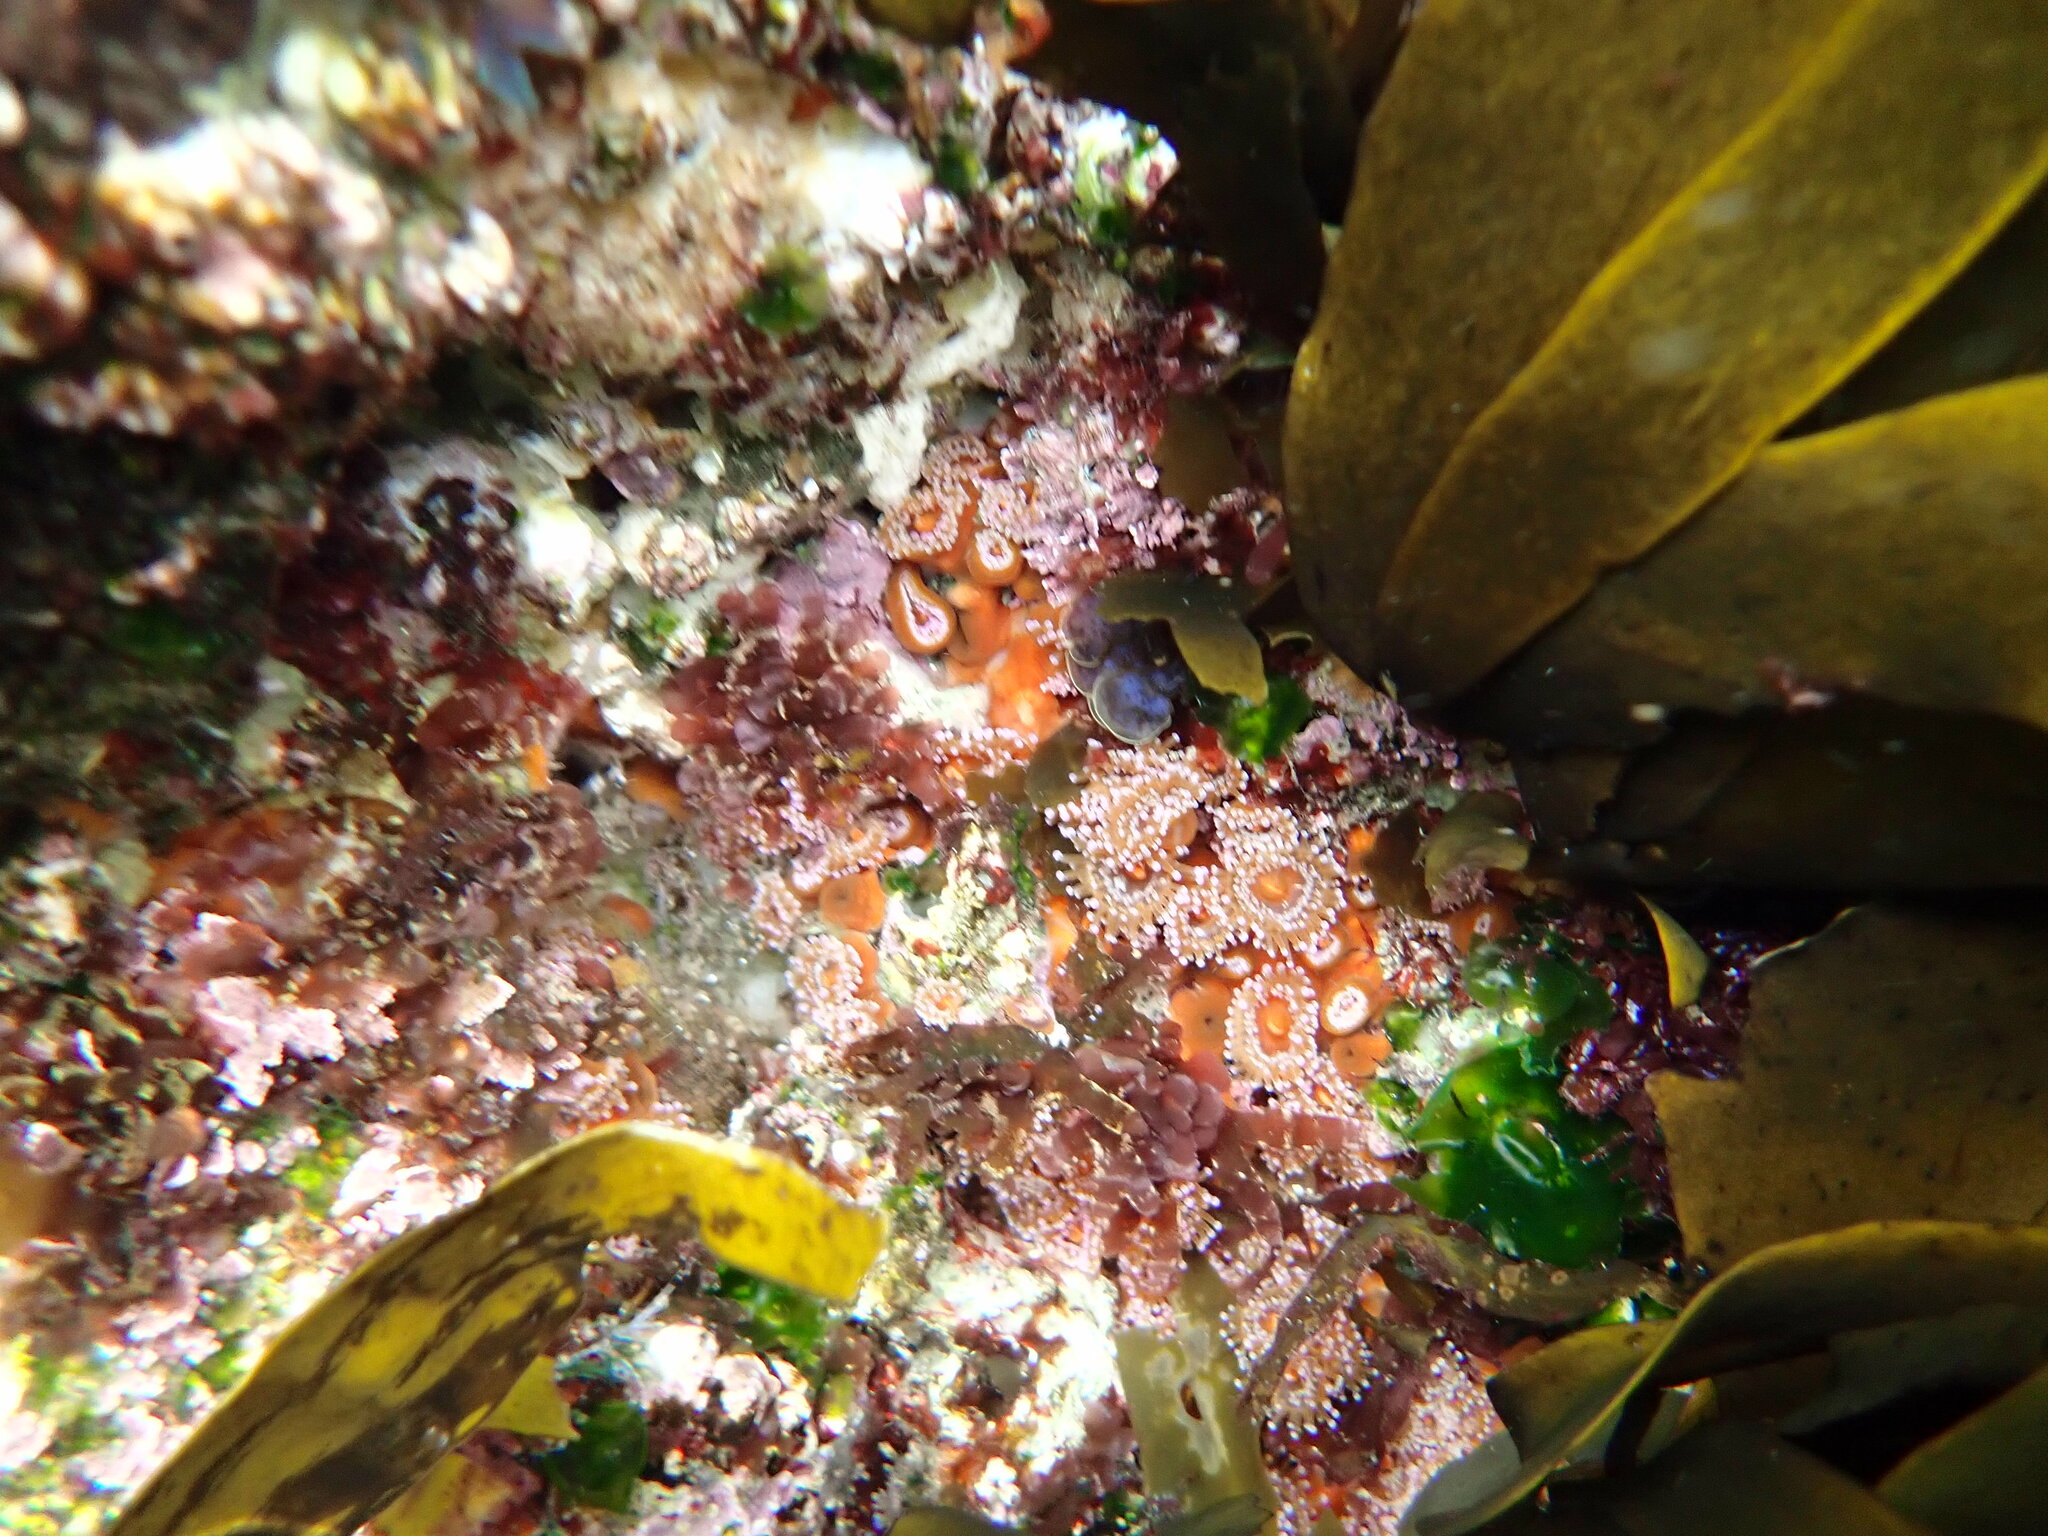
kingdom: Animalia
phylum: Cnidaria
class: Anthozoa
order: Corallimorpharia
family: Corallimorphidae
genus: Corynactis
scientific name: Corynactis australis
